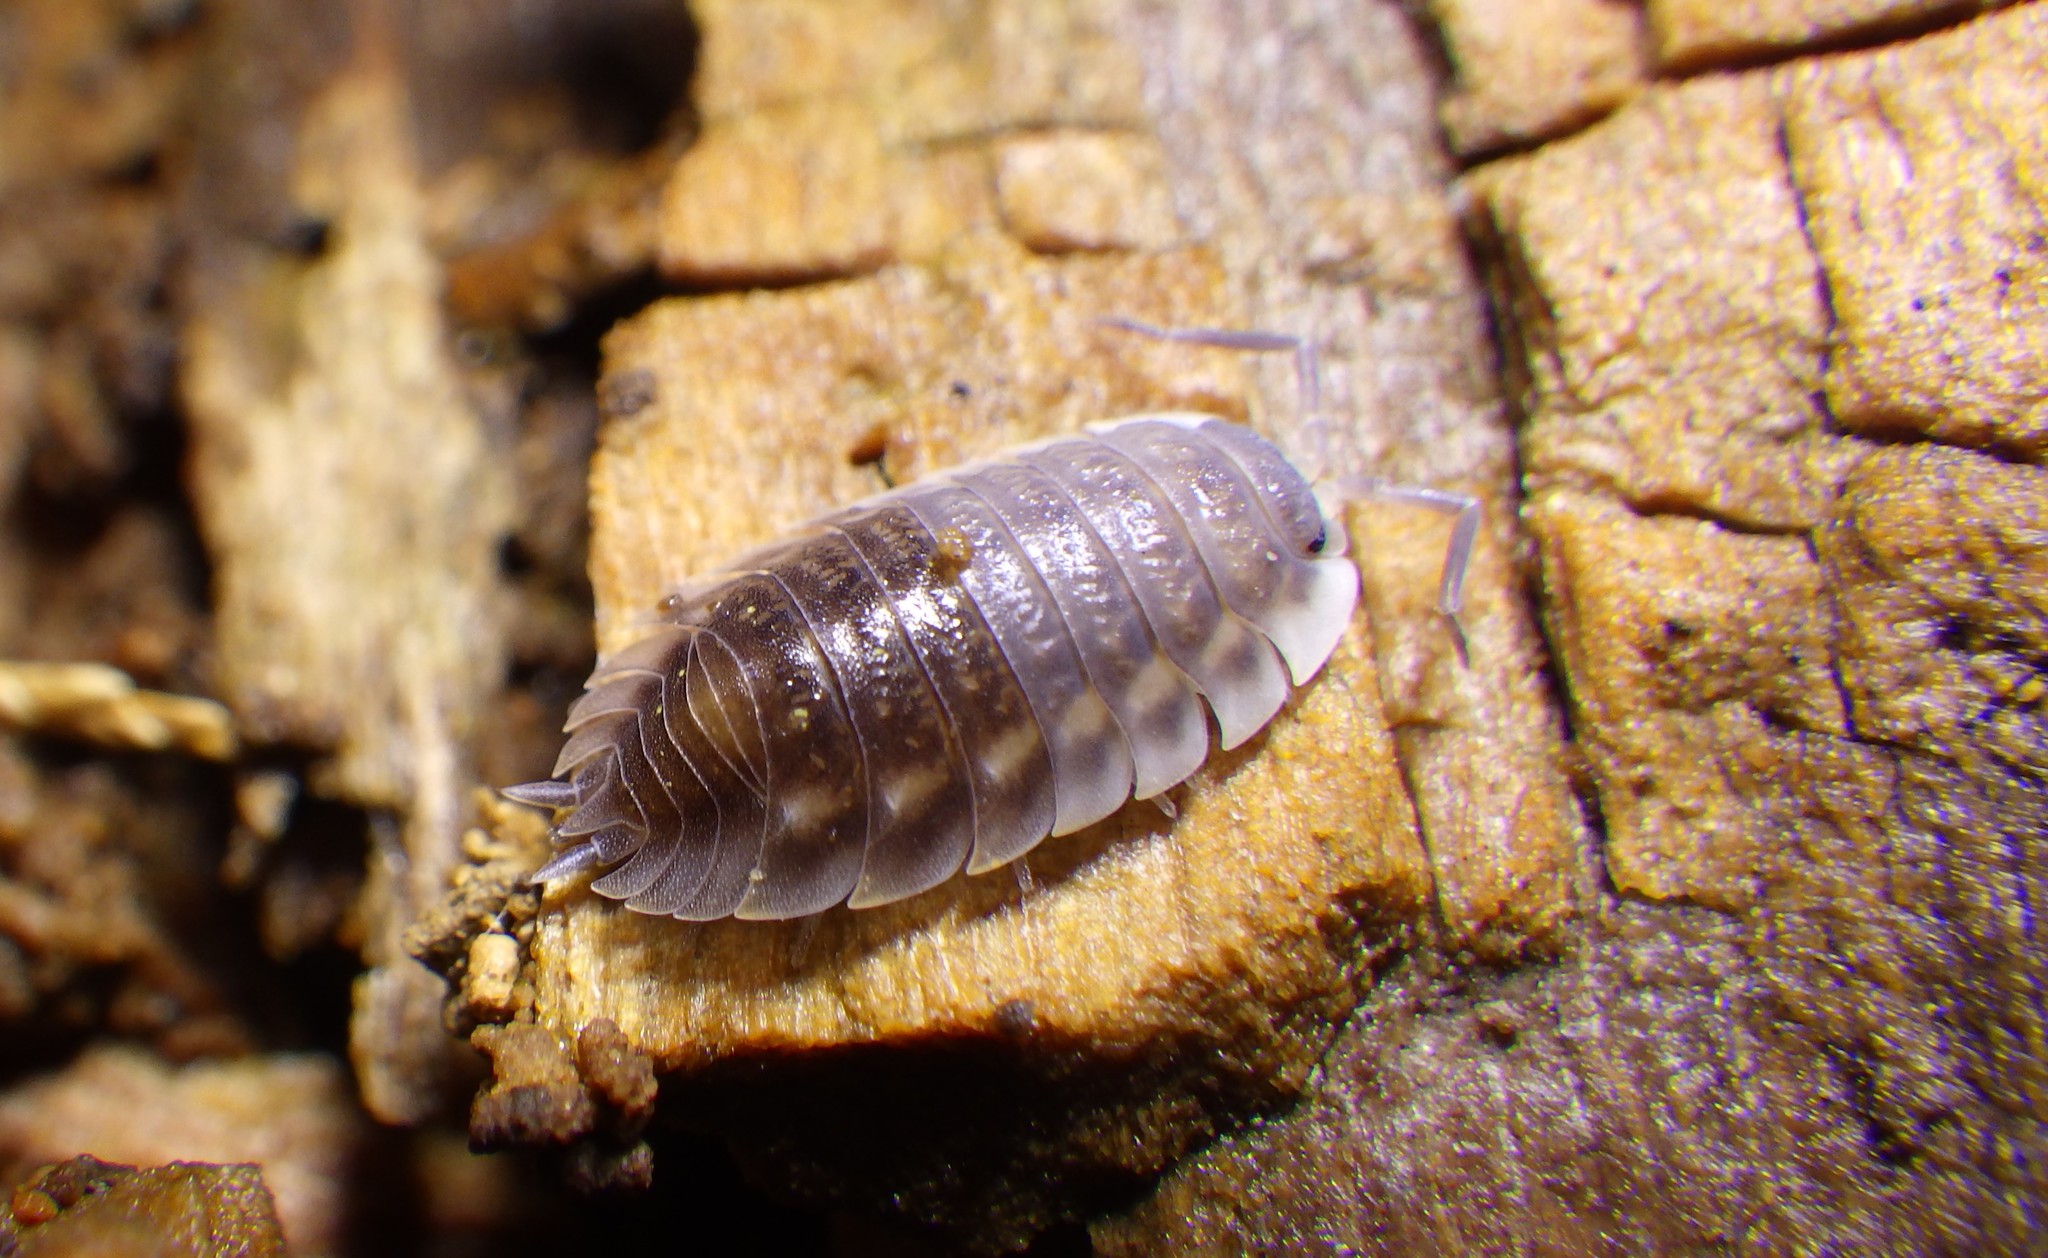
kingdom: Animalia
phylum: Arthropoda
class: Malacostraca
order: Isopoda
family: Oniscidae
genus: Oniscus
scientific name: Oniscus asellus
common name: Common shiny woodlouse
